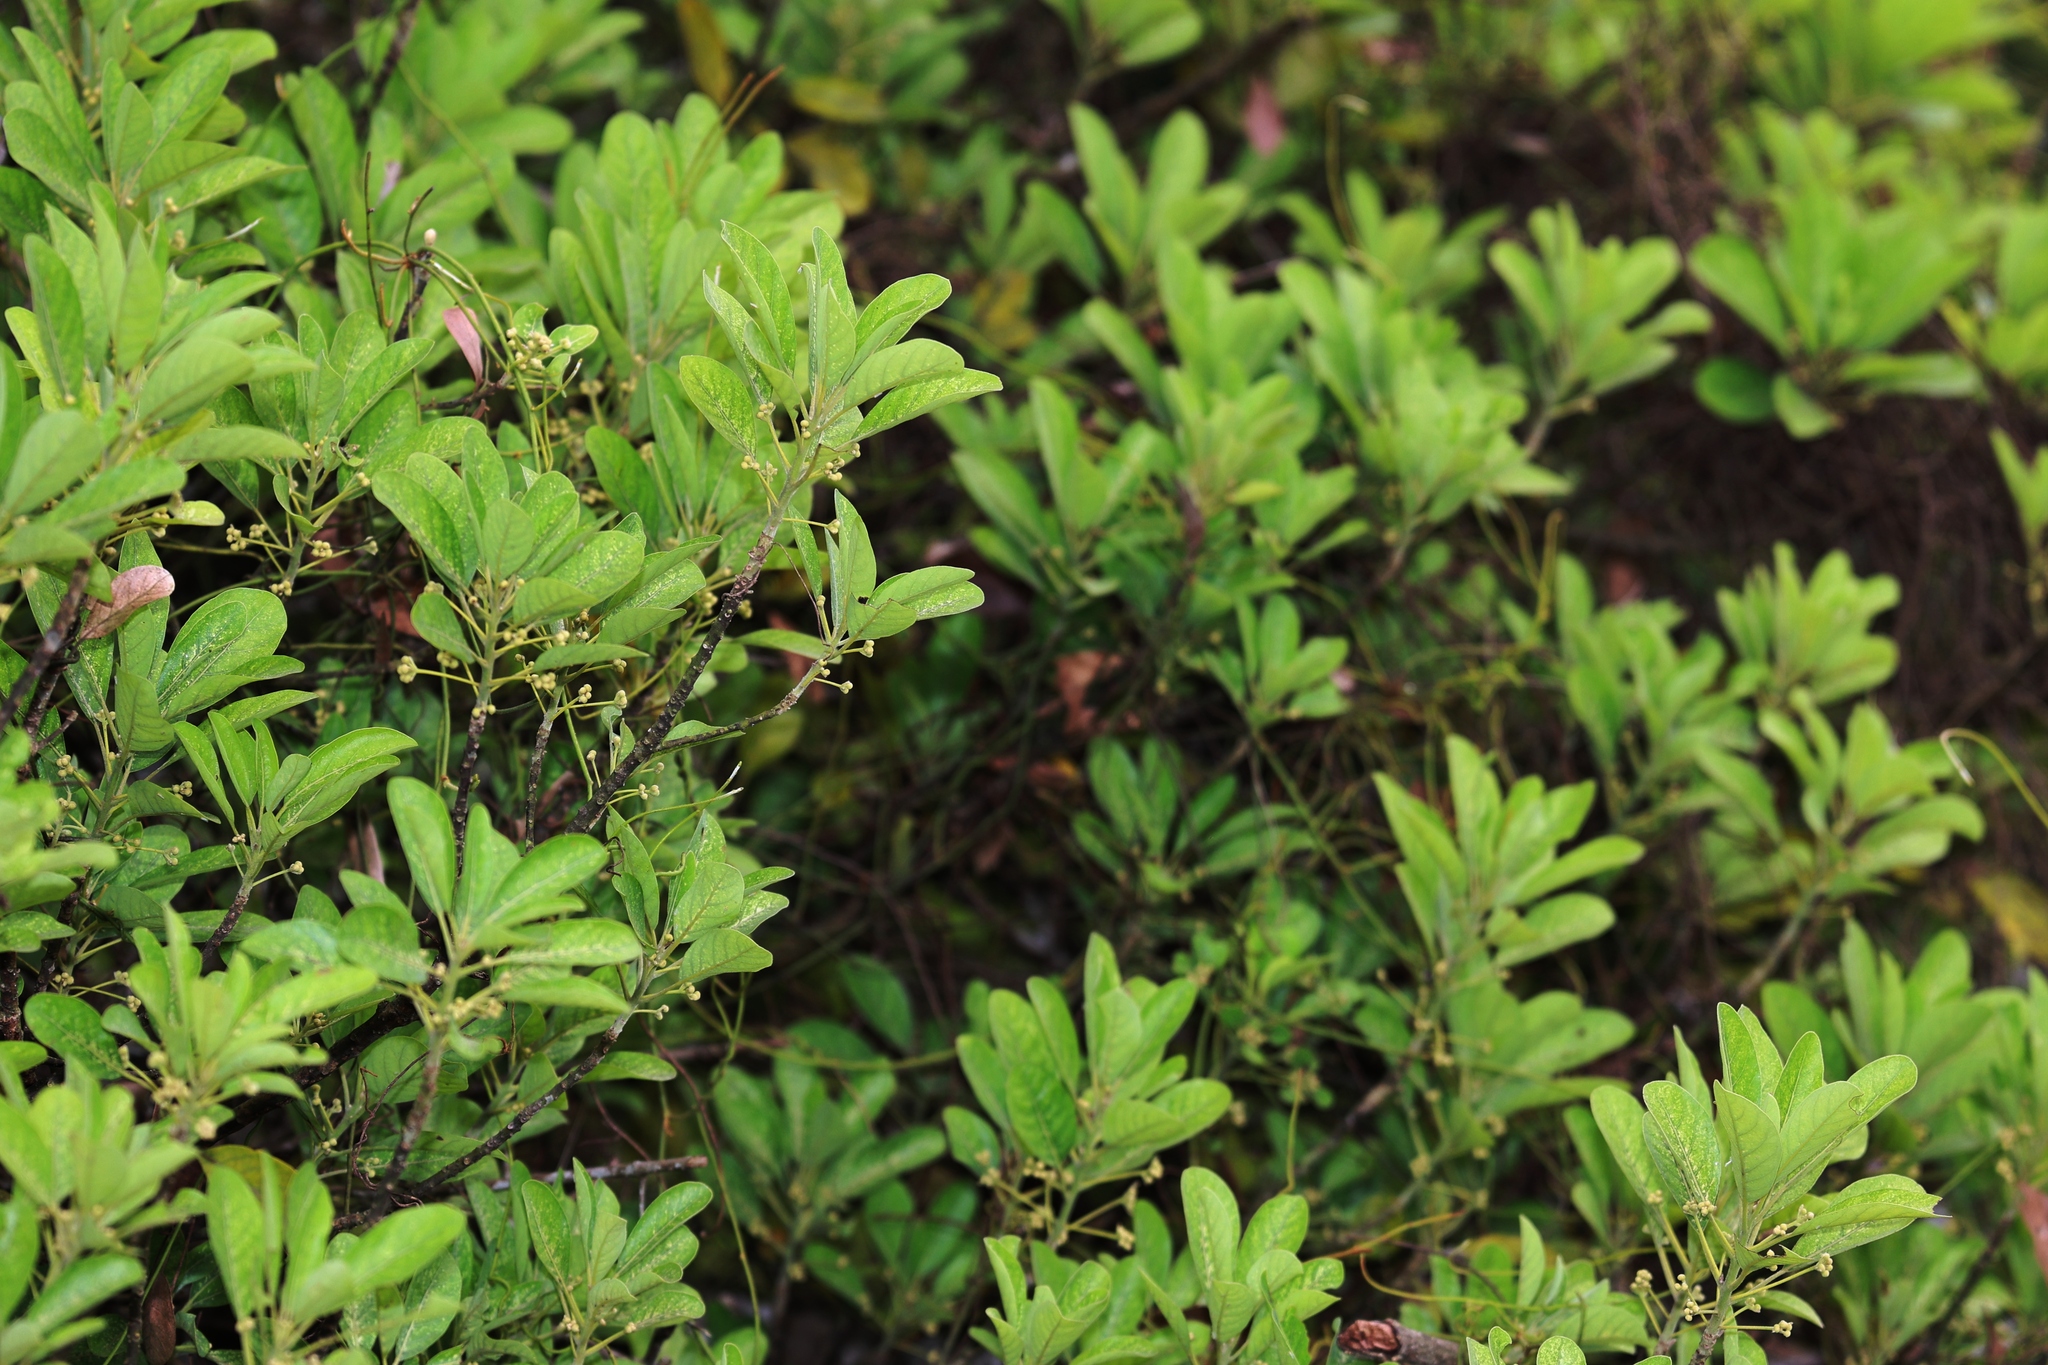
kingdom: Plantae
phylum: Tracheophyta
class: Magnoliopsida
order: Laurales
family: Lauraceae
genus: Litsea
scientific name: Litsea glutinosa
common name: Indian-laurel
